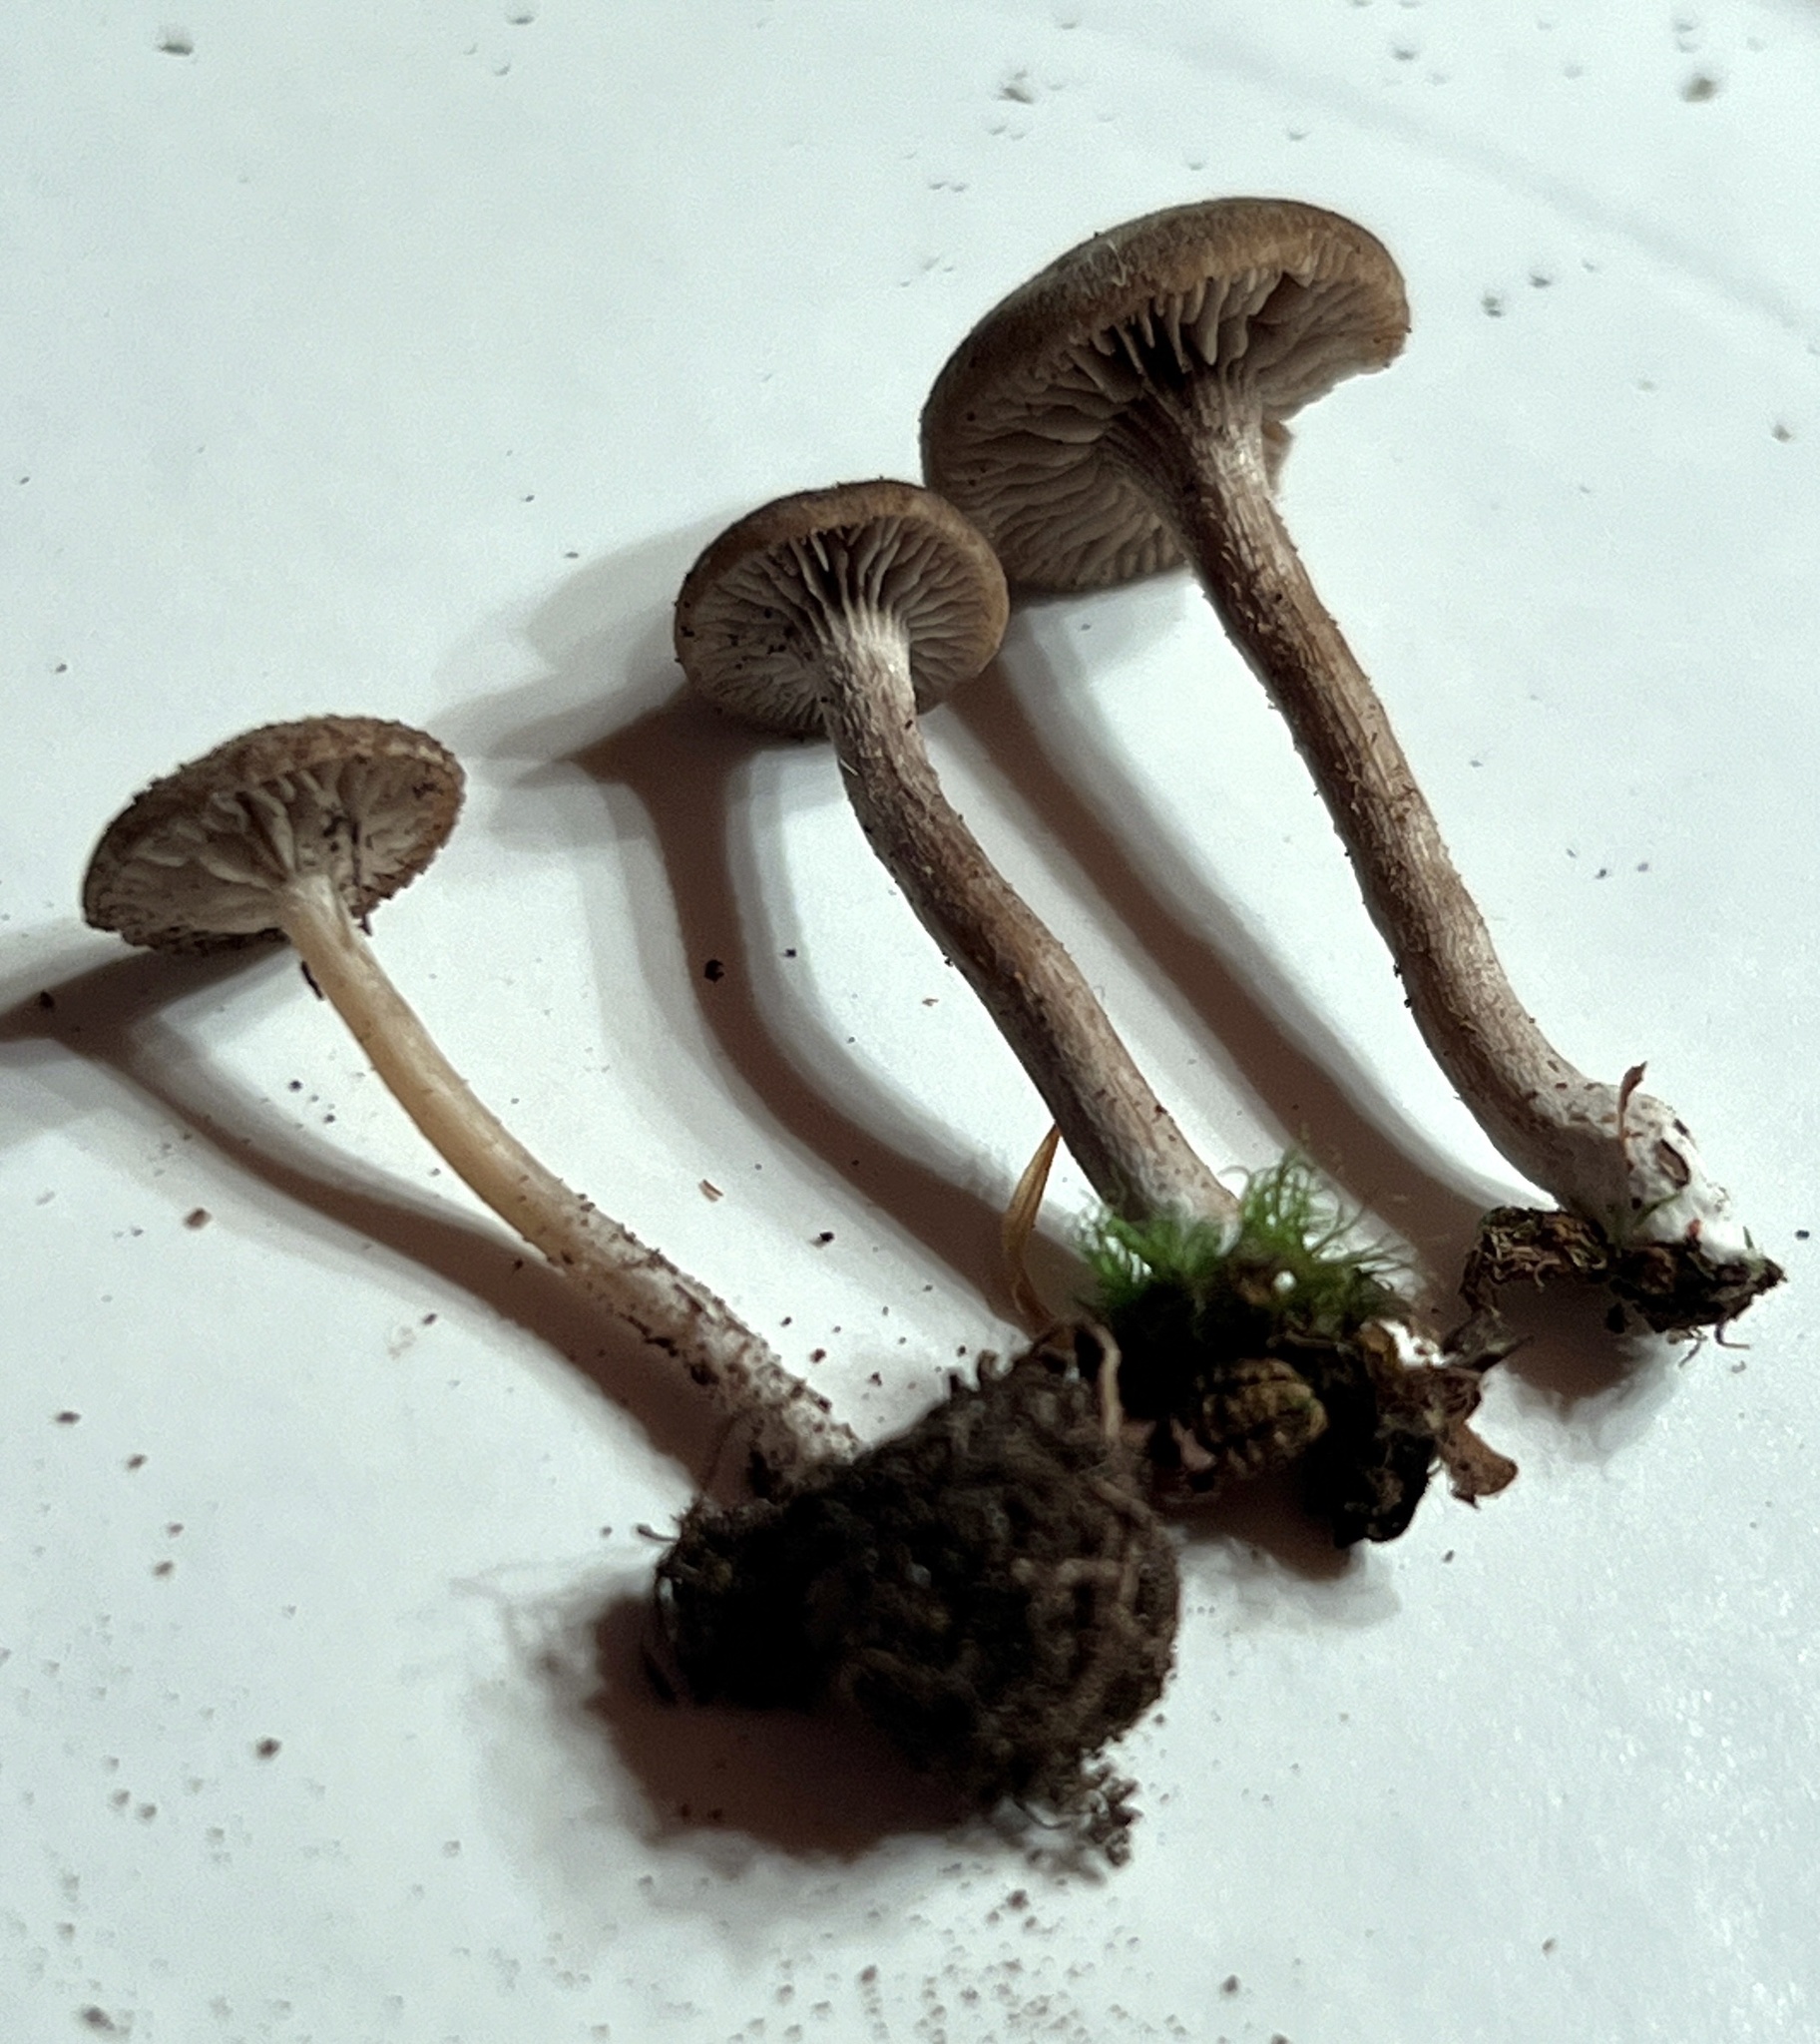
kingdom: Fungi
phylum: Basidiomycota
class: Agaricomycetes
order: Agaricales
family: Entolomataceae
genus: Entoloma
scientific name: Entoloma fuscosquamosum
